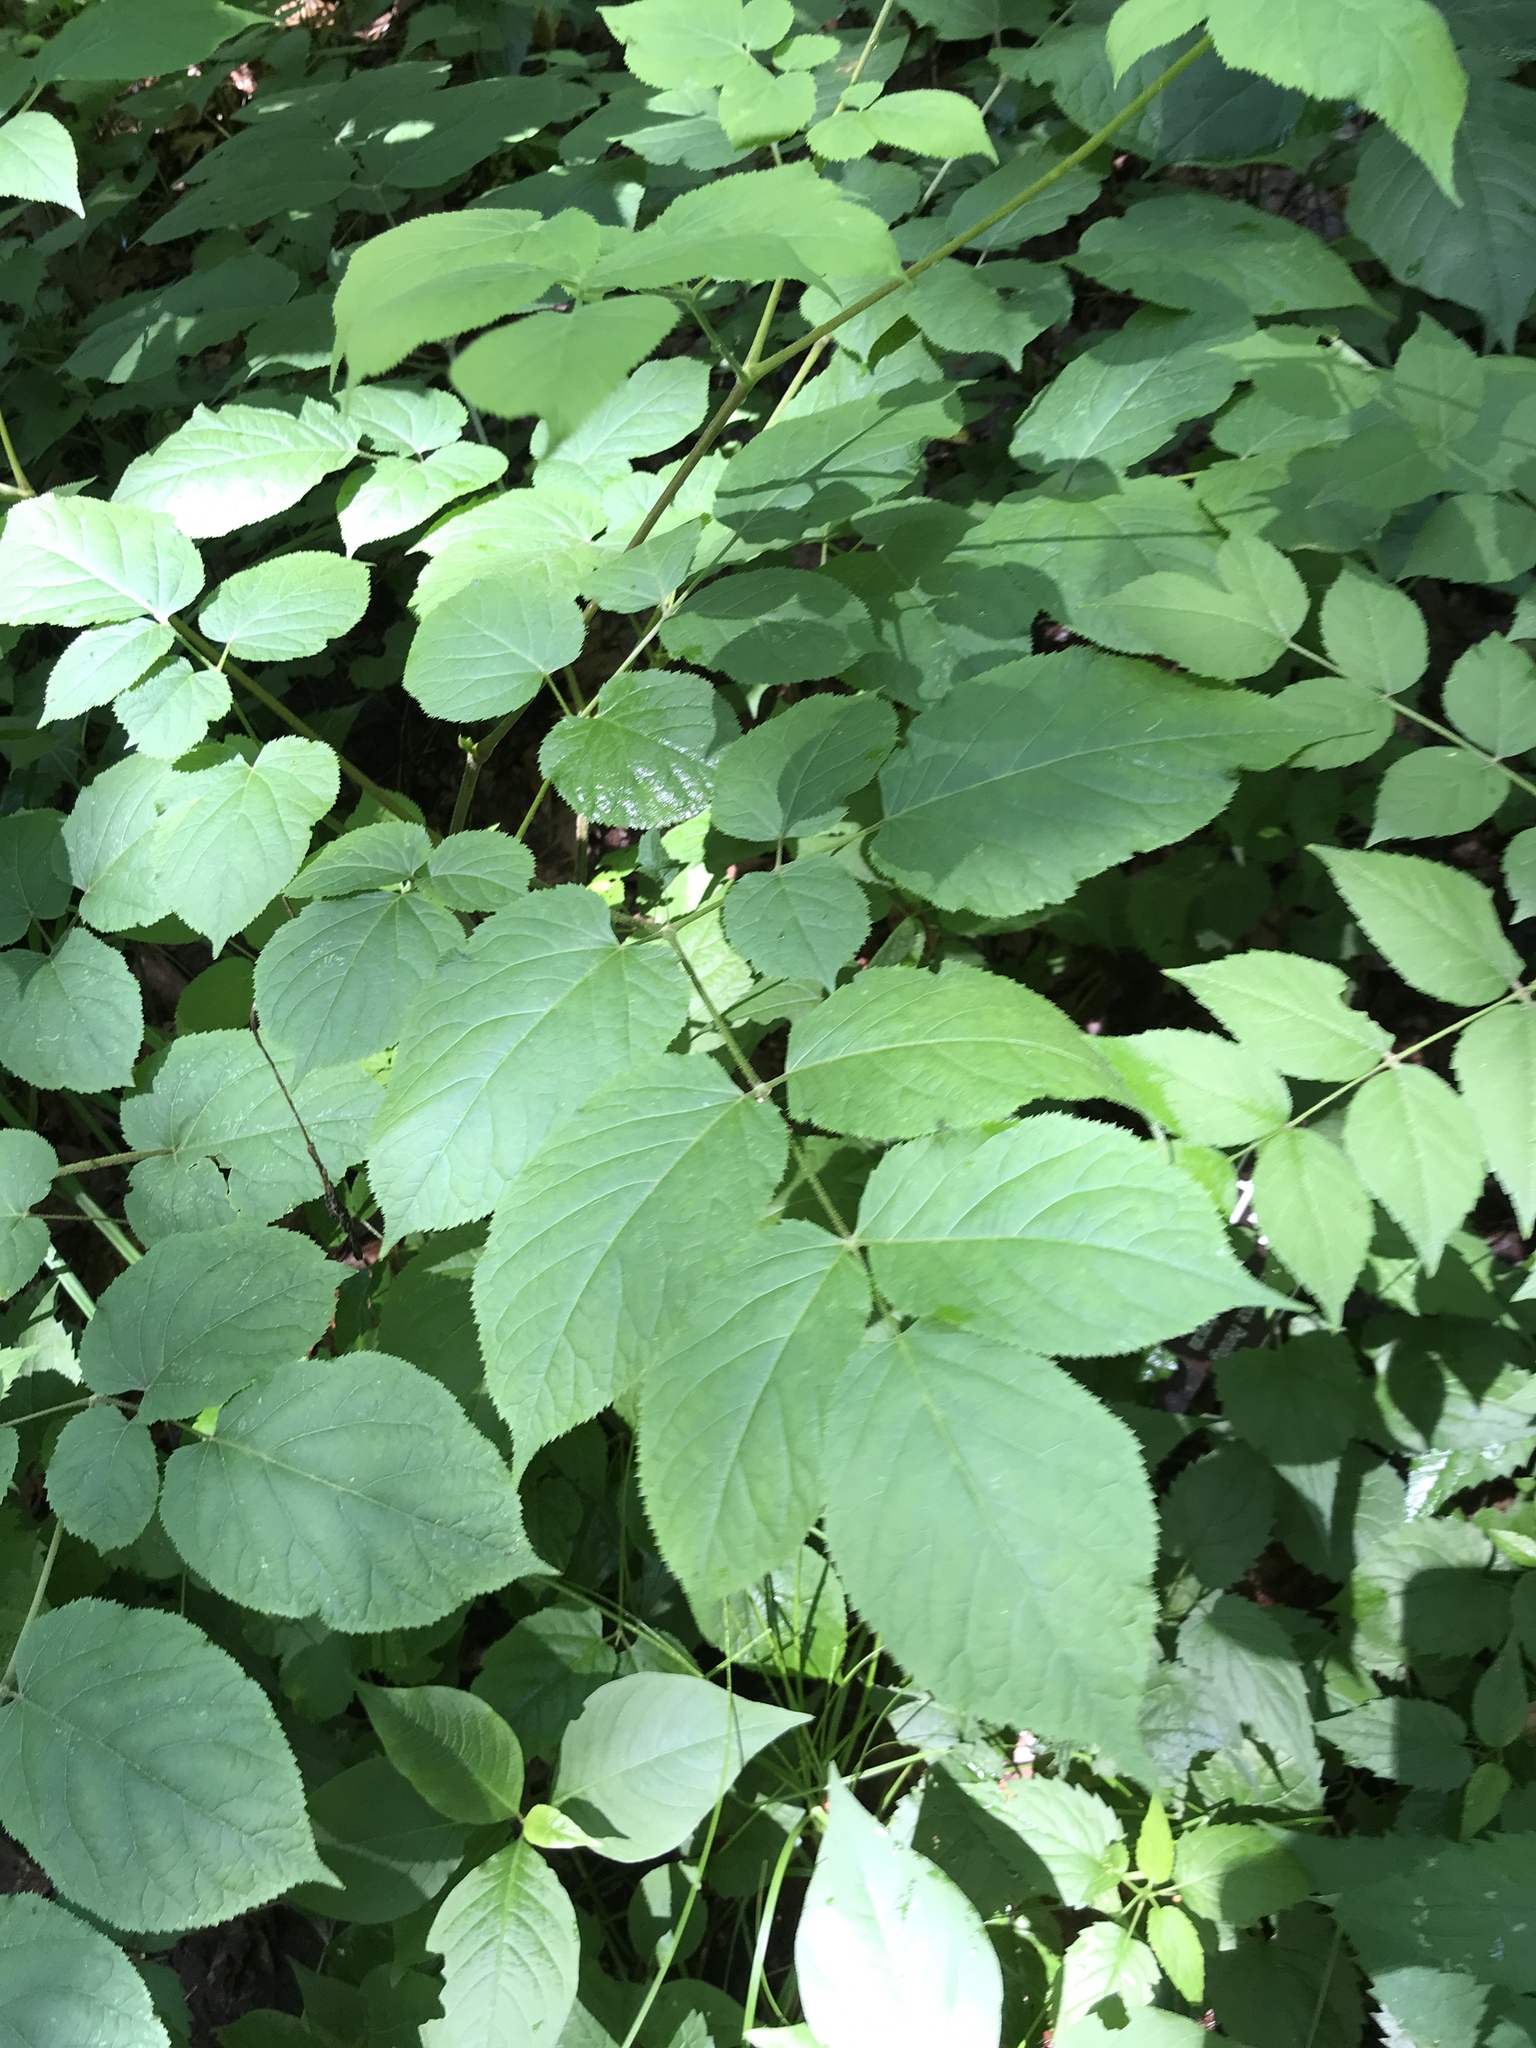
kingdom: Plantae
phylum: Tracheophyta
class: Magnoliopsida
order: Apiales
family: Araliaceae
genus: Aralia
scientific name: Aralia racemosa
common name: American-spikenard
